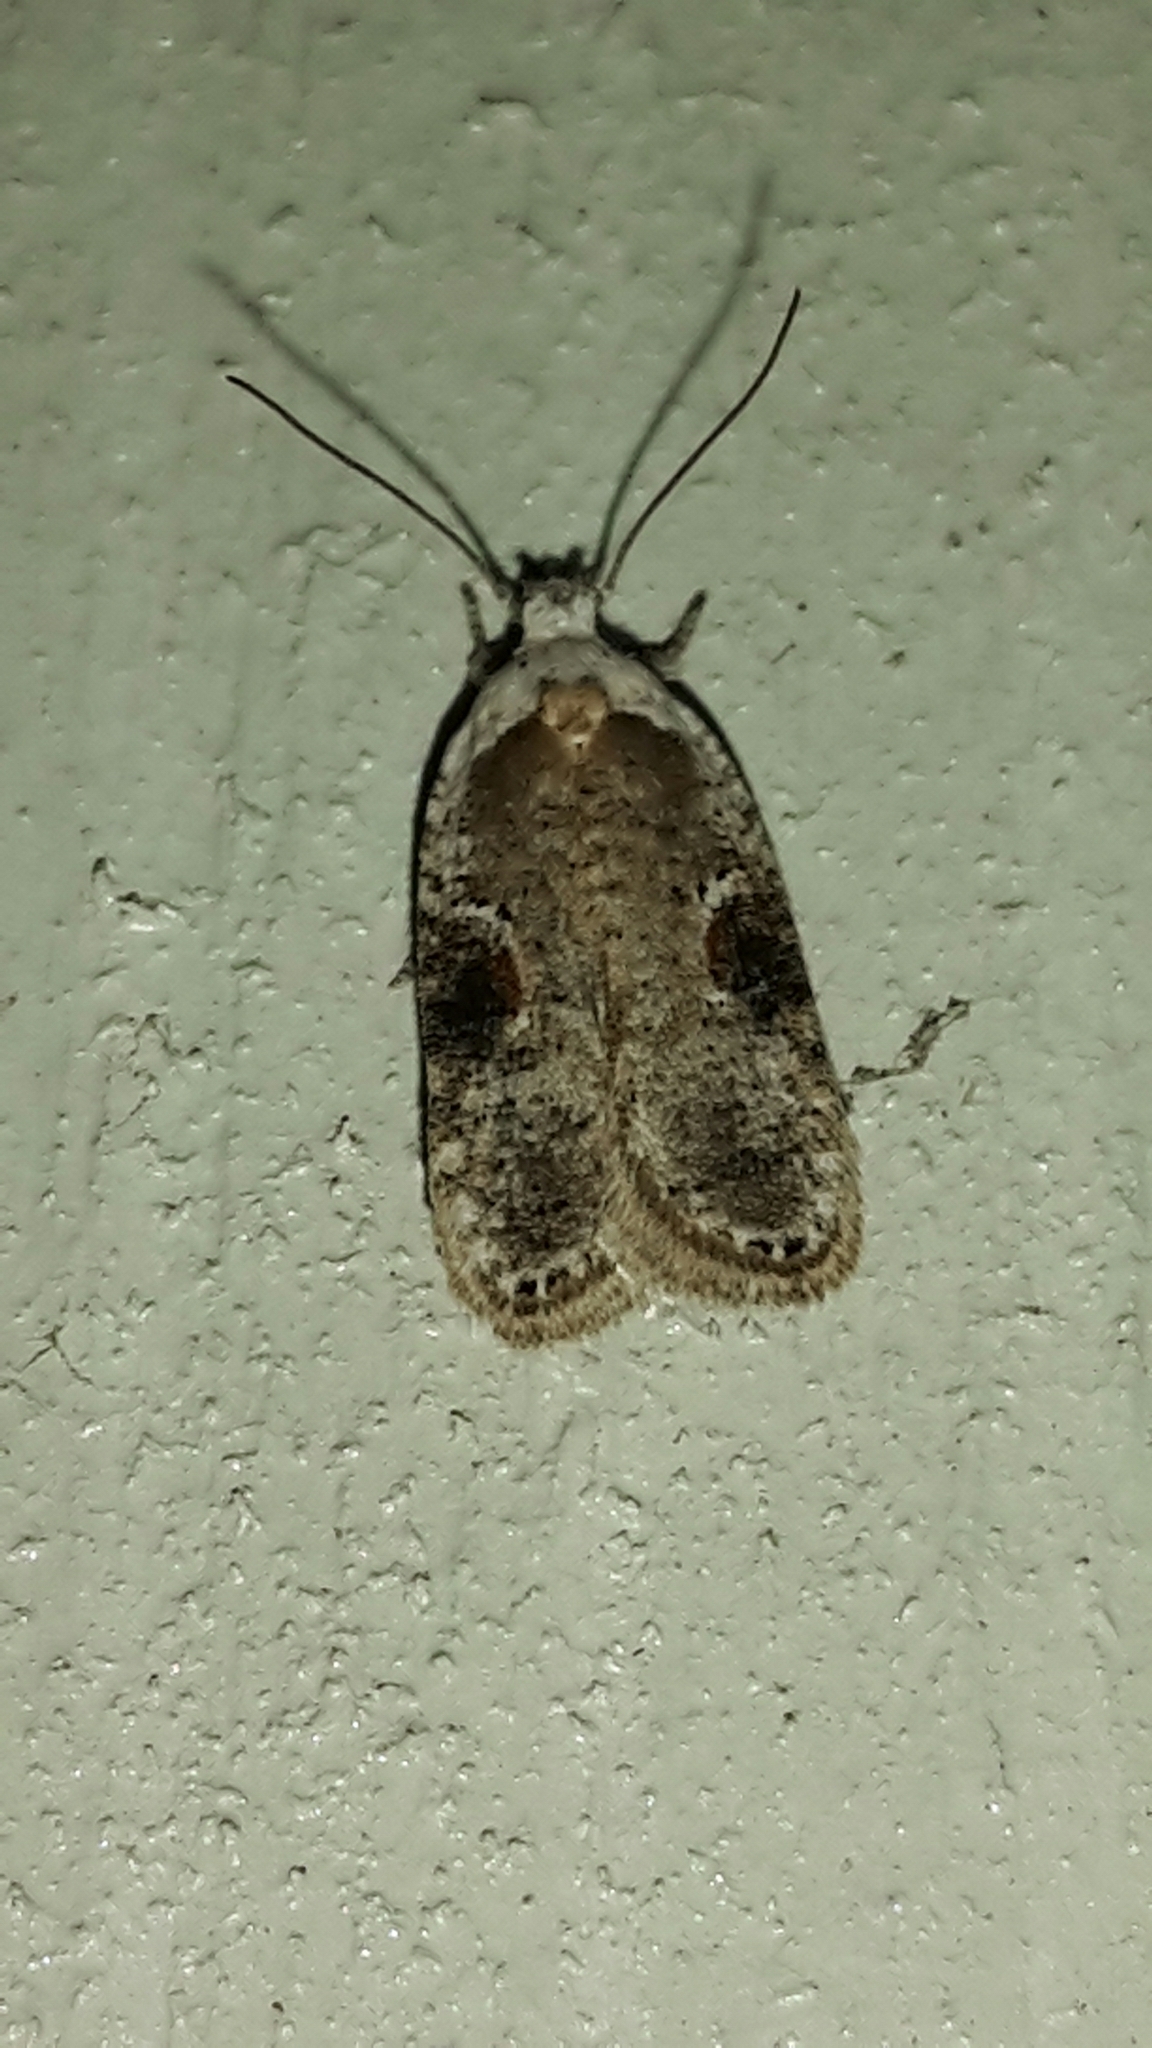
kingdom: Animalia
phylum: Arthropoda
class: Insecta
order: Lepidoptera
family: Depressariidae
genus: Agonopterix
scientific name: Agonopterix alstroemeriana
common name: Moth
